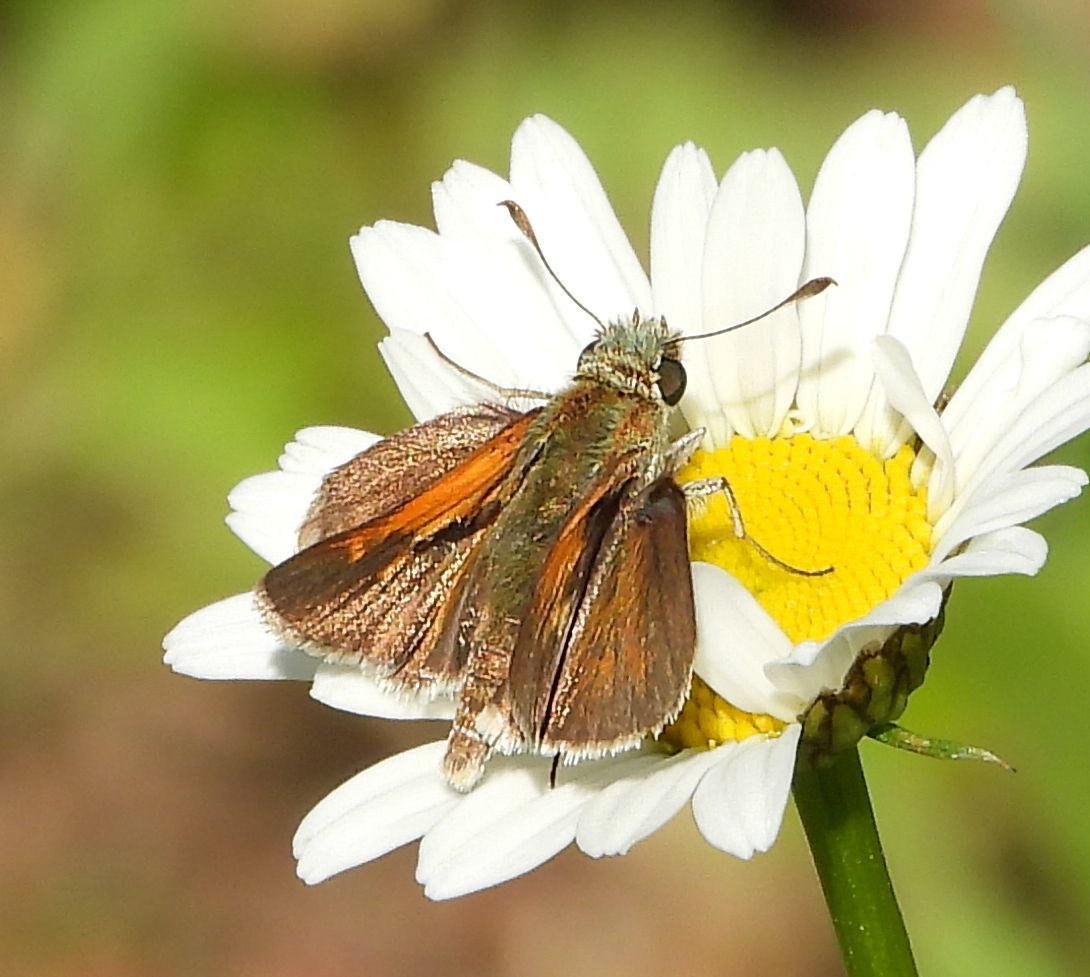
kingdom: Animalia
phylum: Arthropoda
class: Insecta
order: Lepidoptera
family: Hesperiidae
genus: Polites
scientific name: Polites themistocles
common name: Tawny-edged skipper
